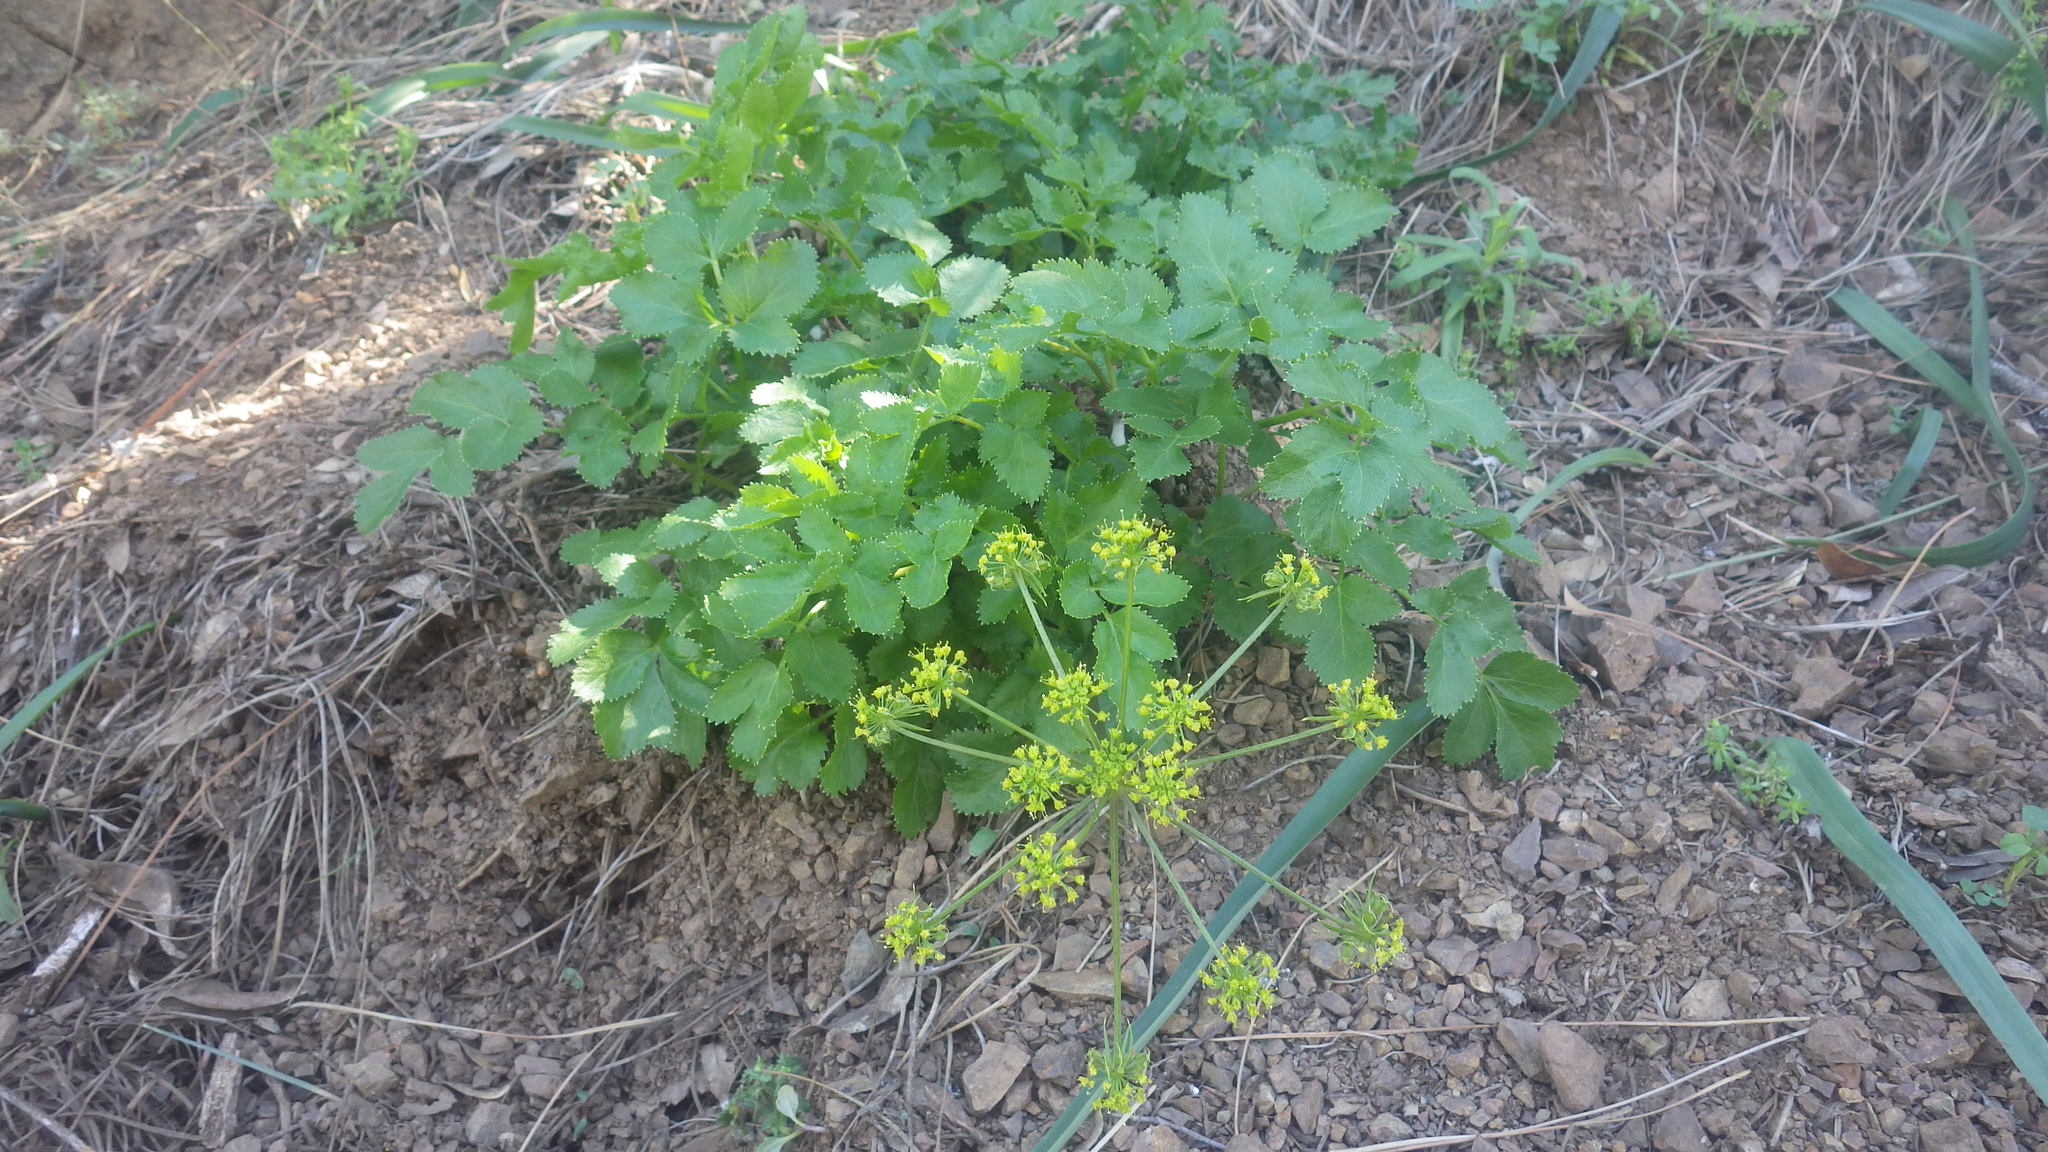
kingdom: Plantae
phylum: Tracheophyta
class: Magnoliopsida
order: Apiales
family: Apiaceae
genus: Tauschia
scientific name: Tauschia hartwegii
